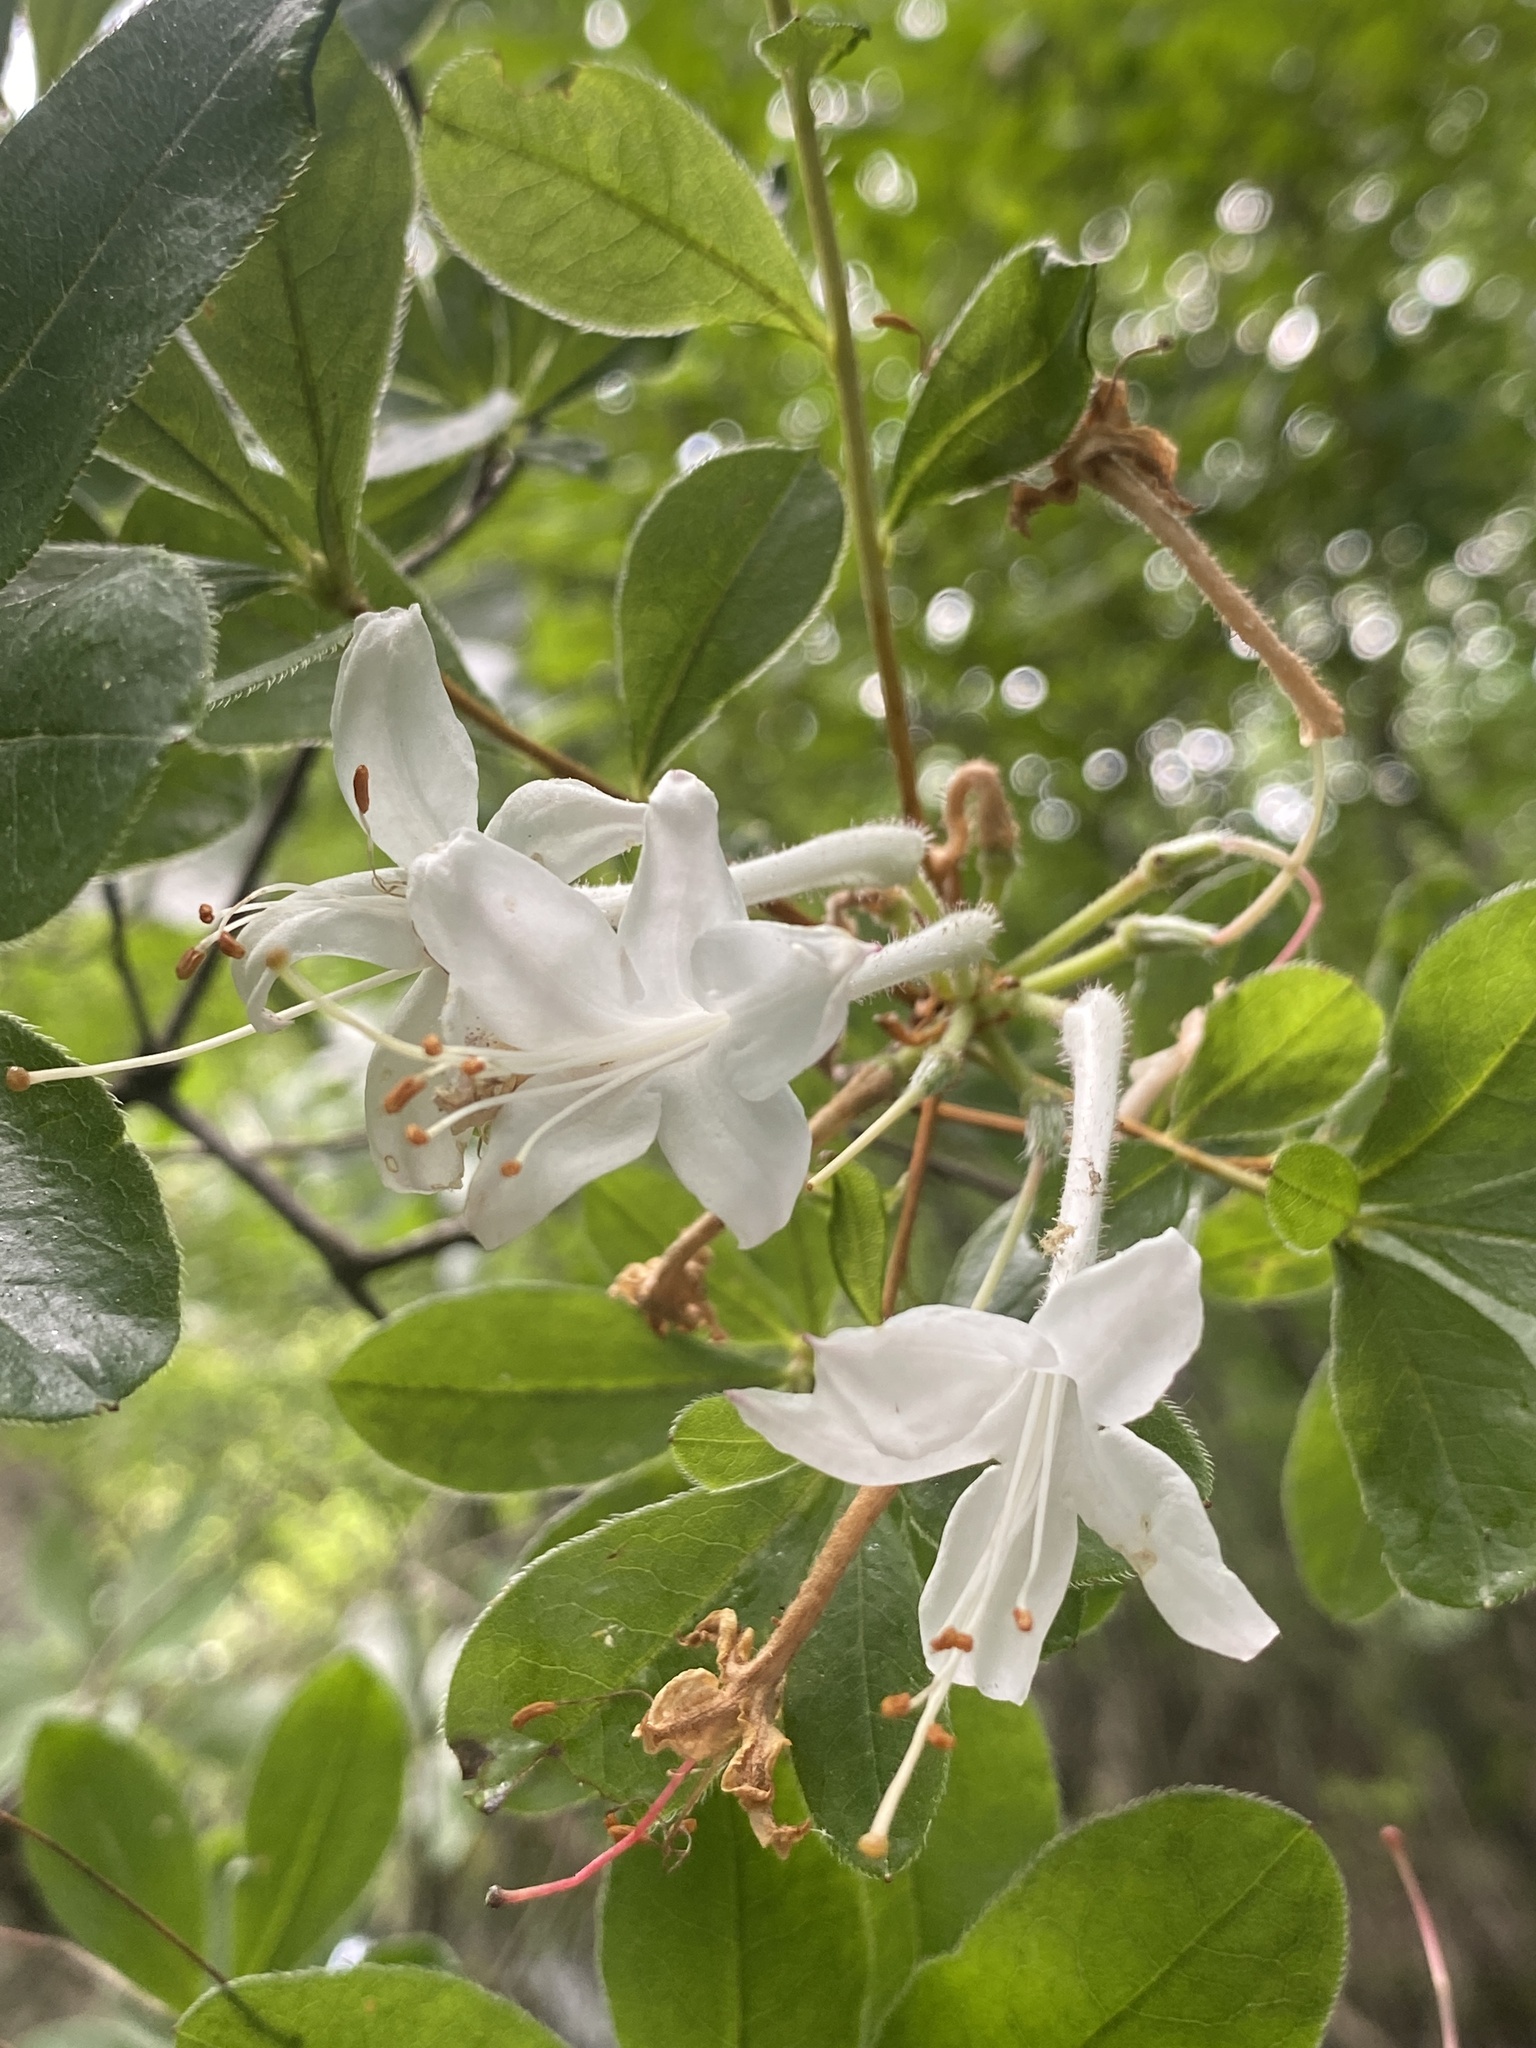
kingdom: Plantae
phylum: Tracheophyta
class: Magnoliopsida
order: Ericales
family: Ericaceae
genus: Rhododendron
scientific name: Rhododendron viscosum
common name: Clammy azalea
